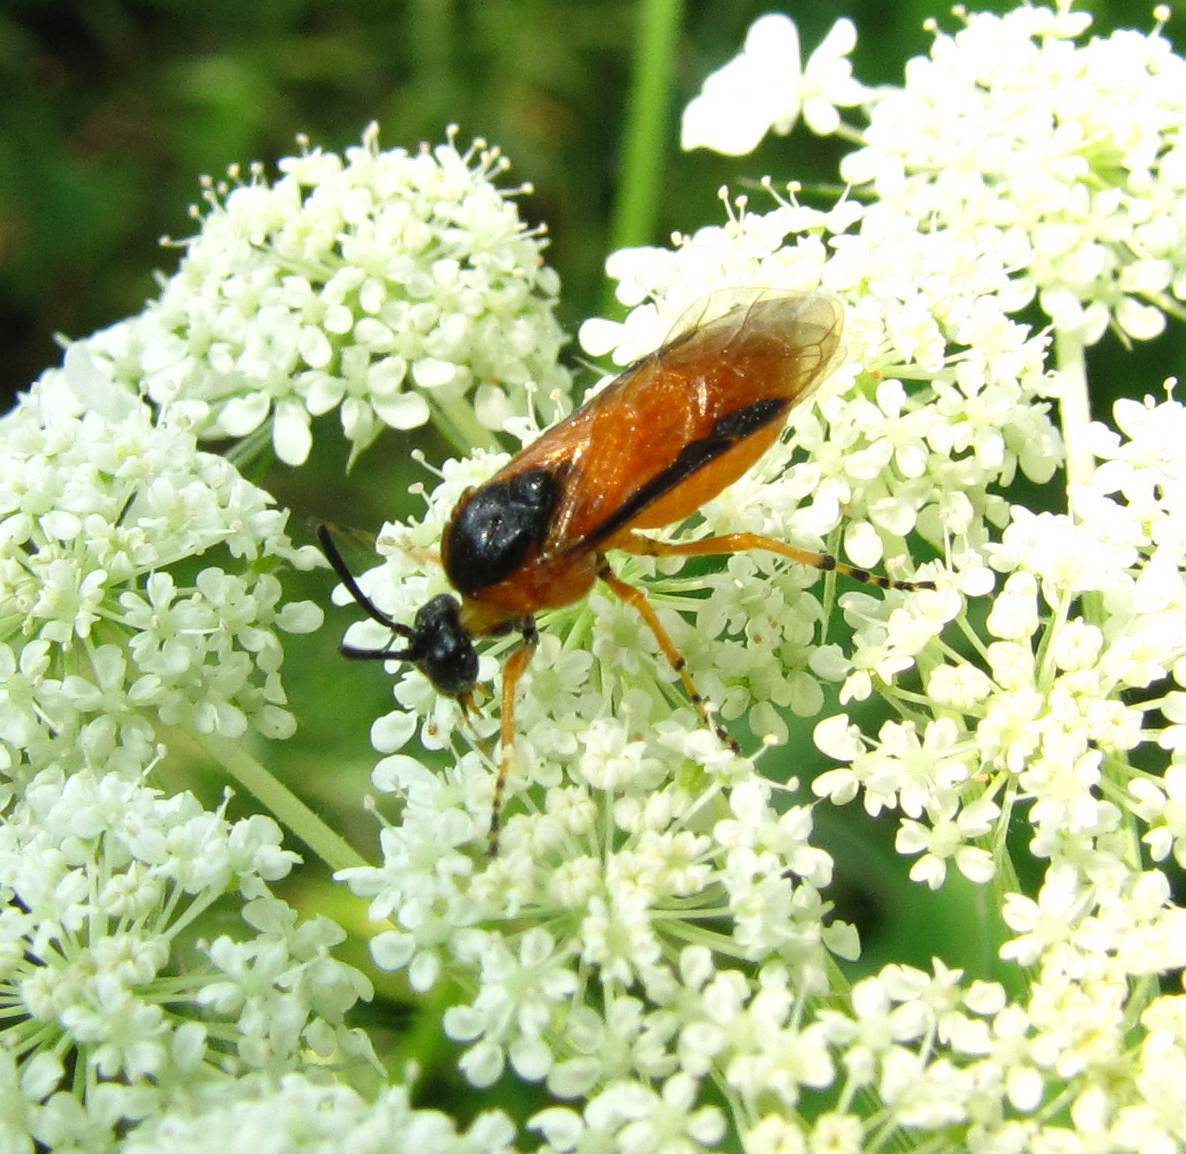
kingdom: Animalia
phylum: Arthropoda
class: Insecta
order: Hymenoptera
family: Argidae
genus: Arge
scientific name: Arge ochropus
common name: Argid sawfly
